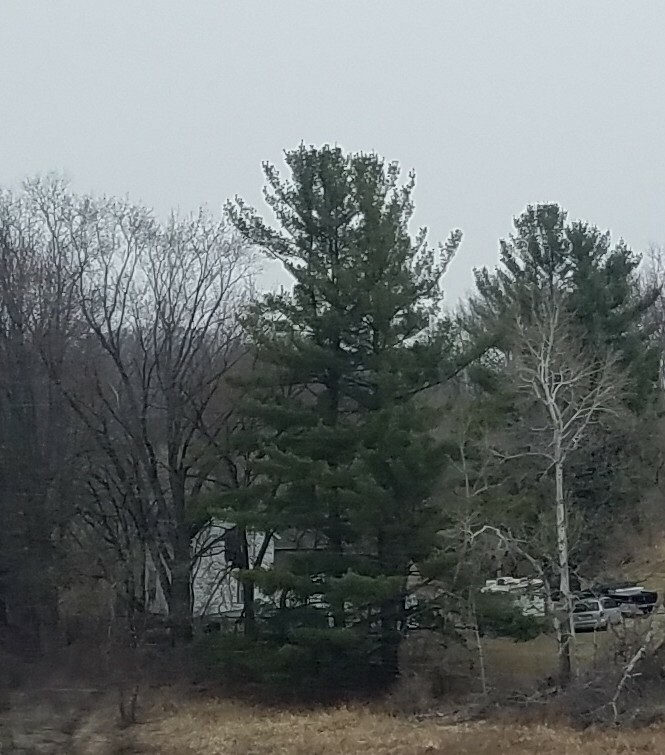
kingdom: Plantae
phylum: Tracheophyta
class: Pinopsida
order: Pinales
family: Pinaceae
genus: Pinus
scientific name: Pinus strobus
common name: Weymouth pine
